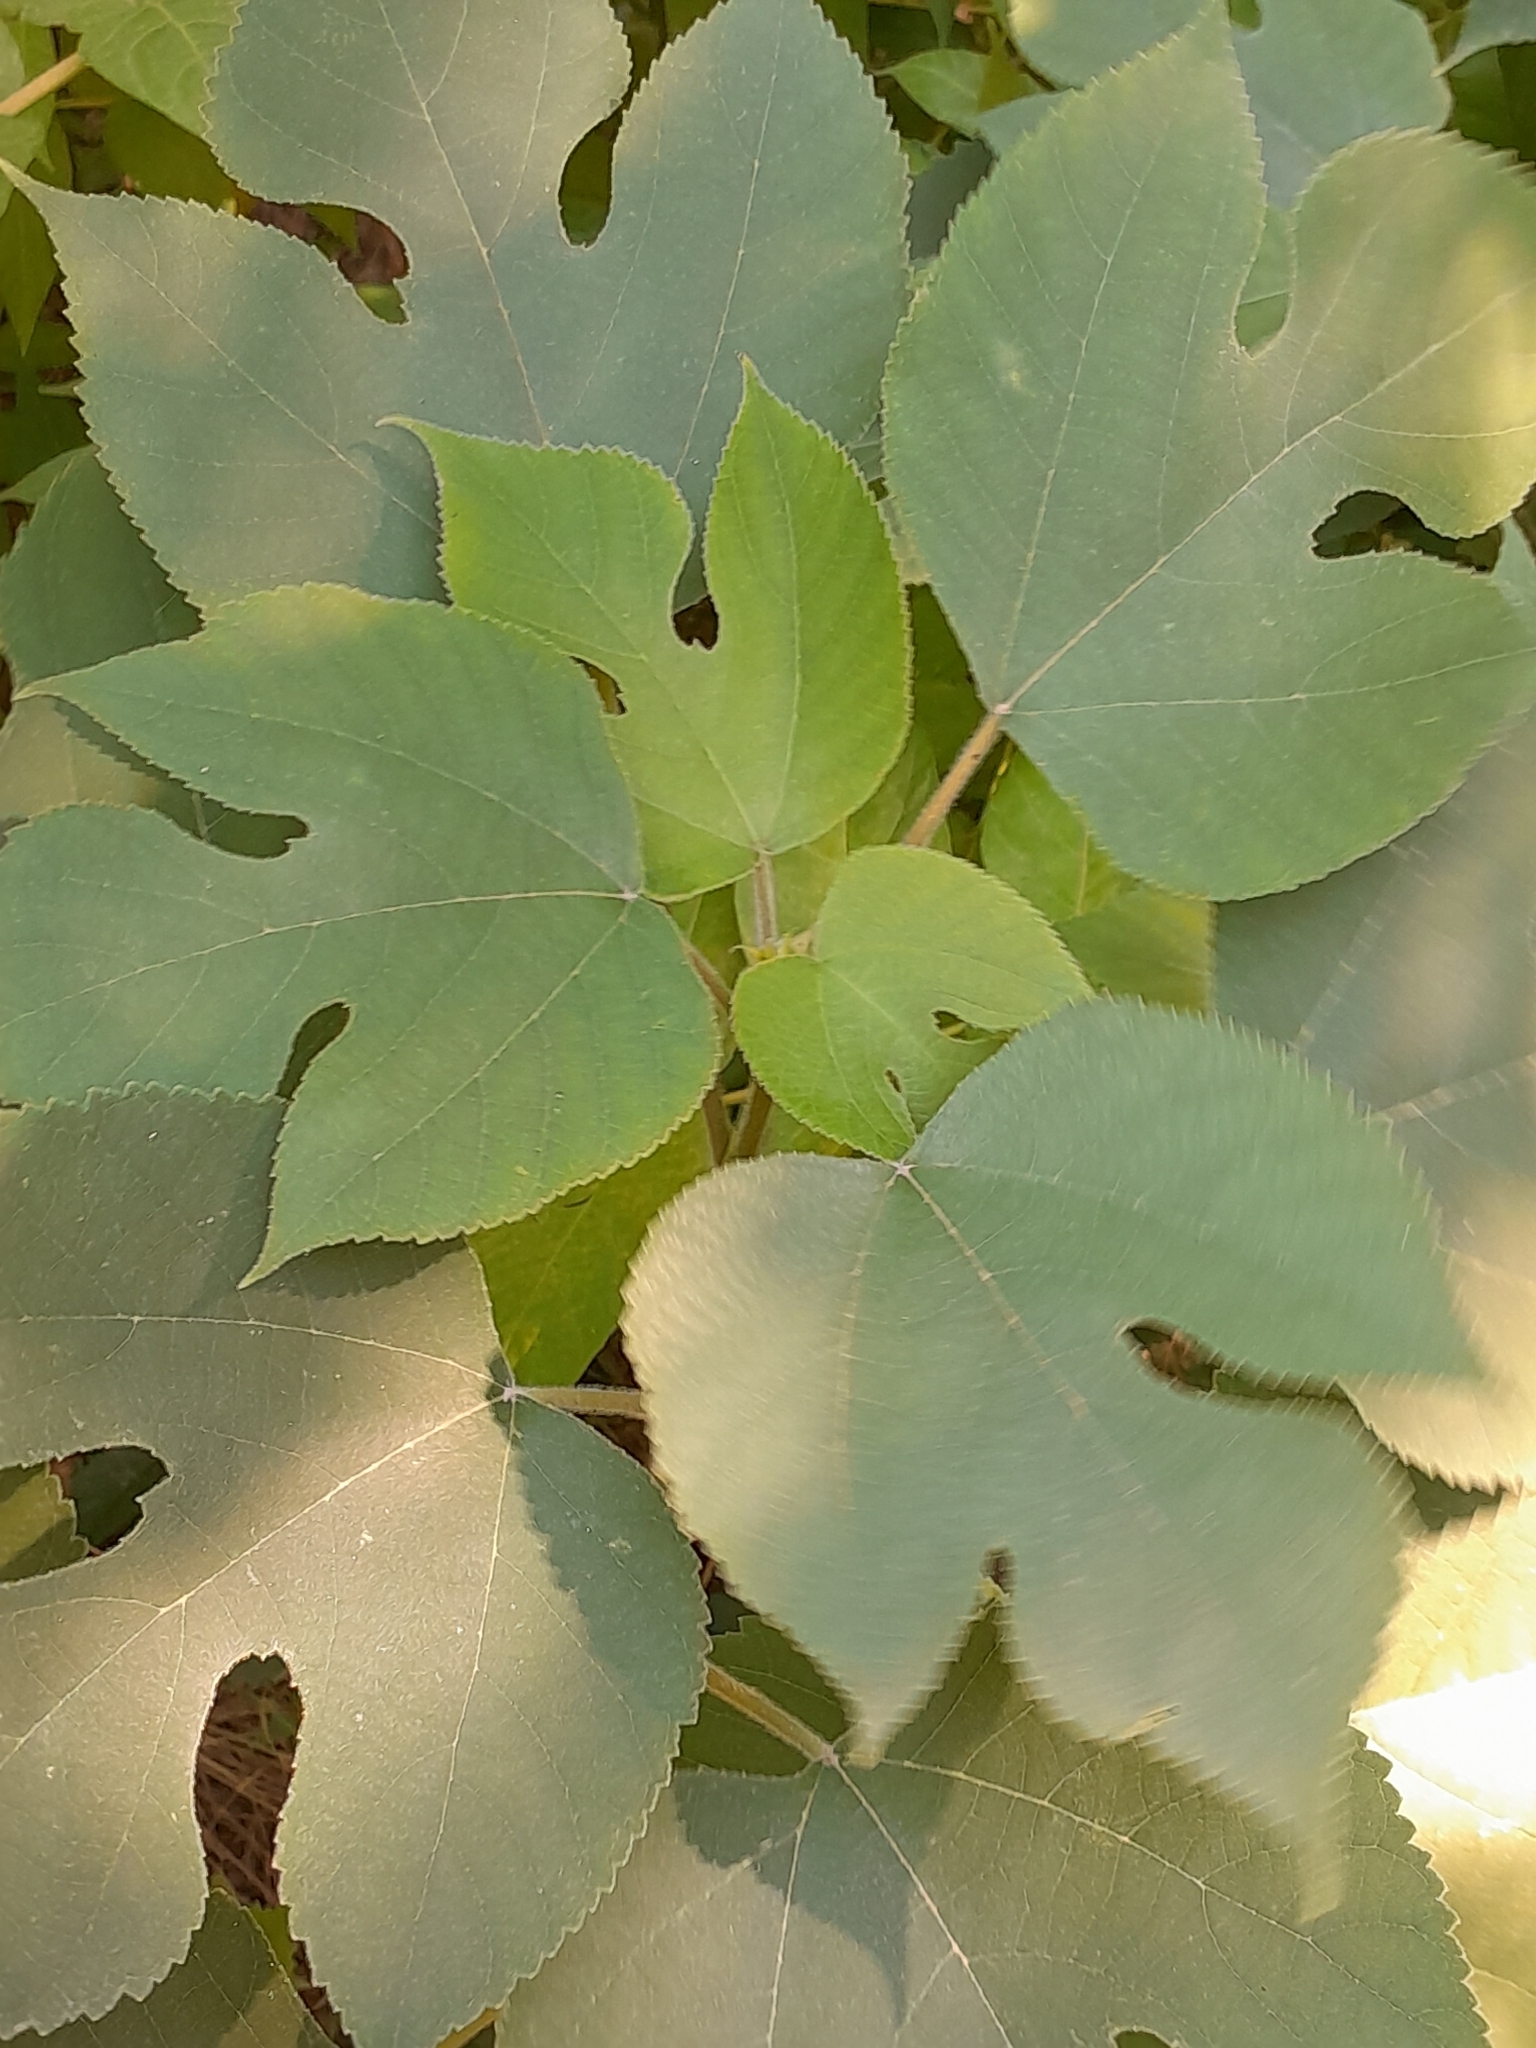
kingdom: Plantae
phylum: Tracheophyta
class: Magnoliopsida
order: Rosales
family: Moraceae
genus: Broussonetia
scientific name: Broussonetia papyrifera
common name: Paper mulberry
